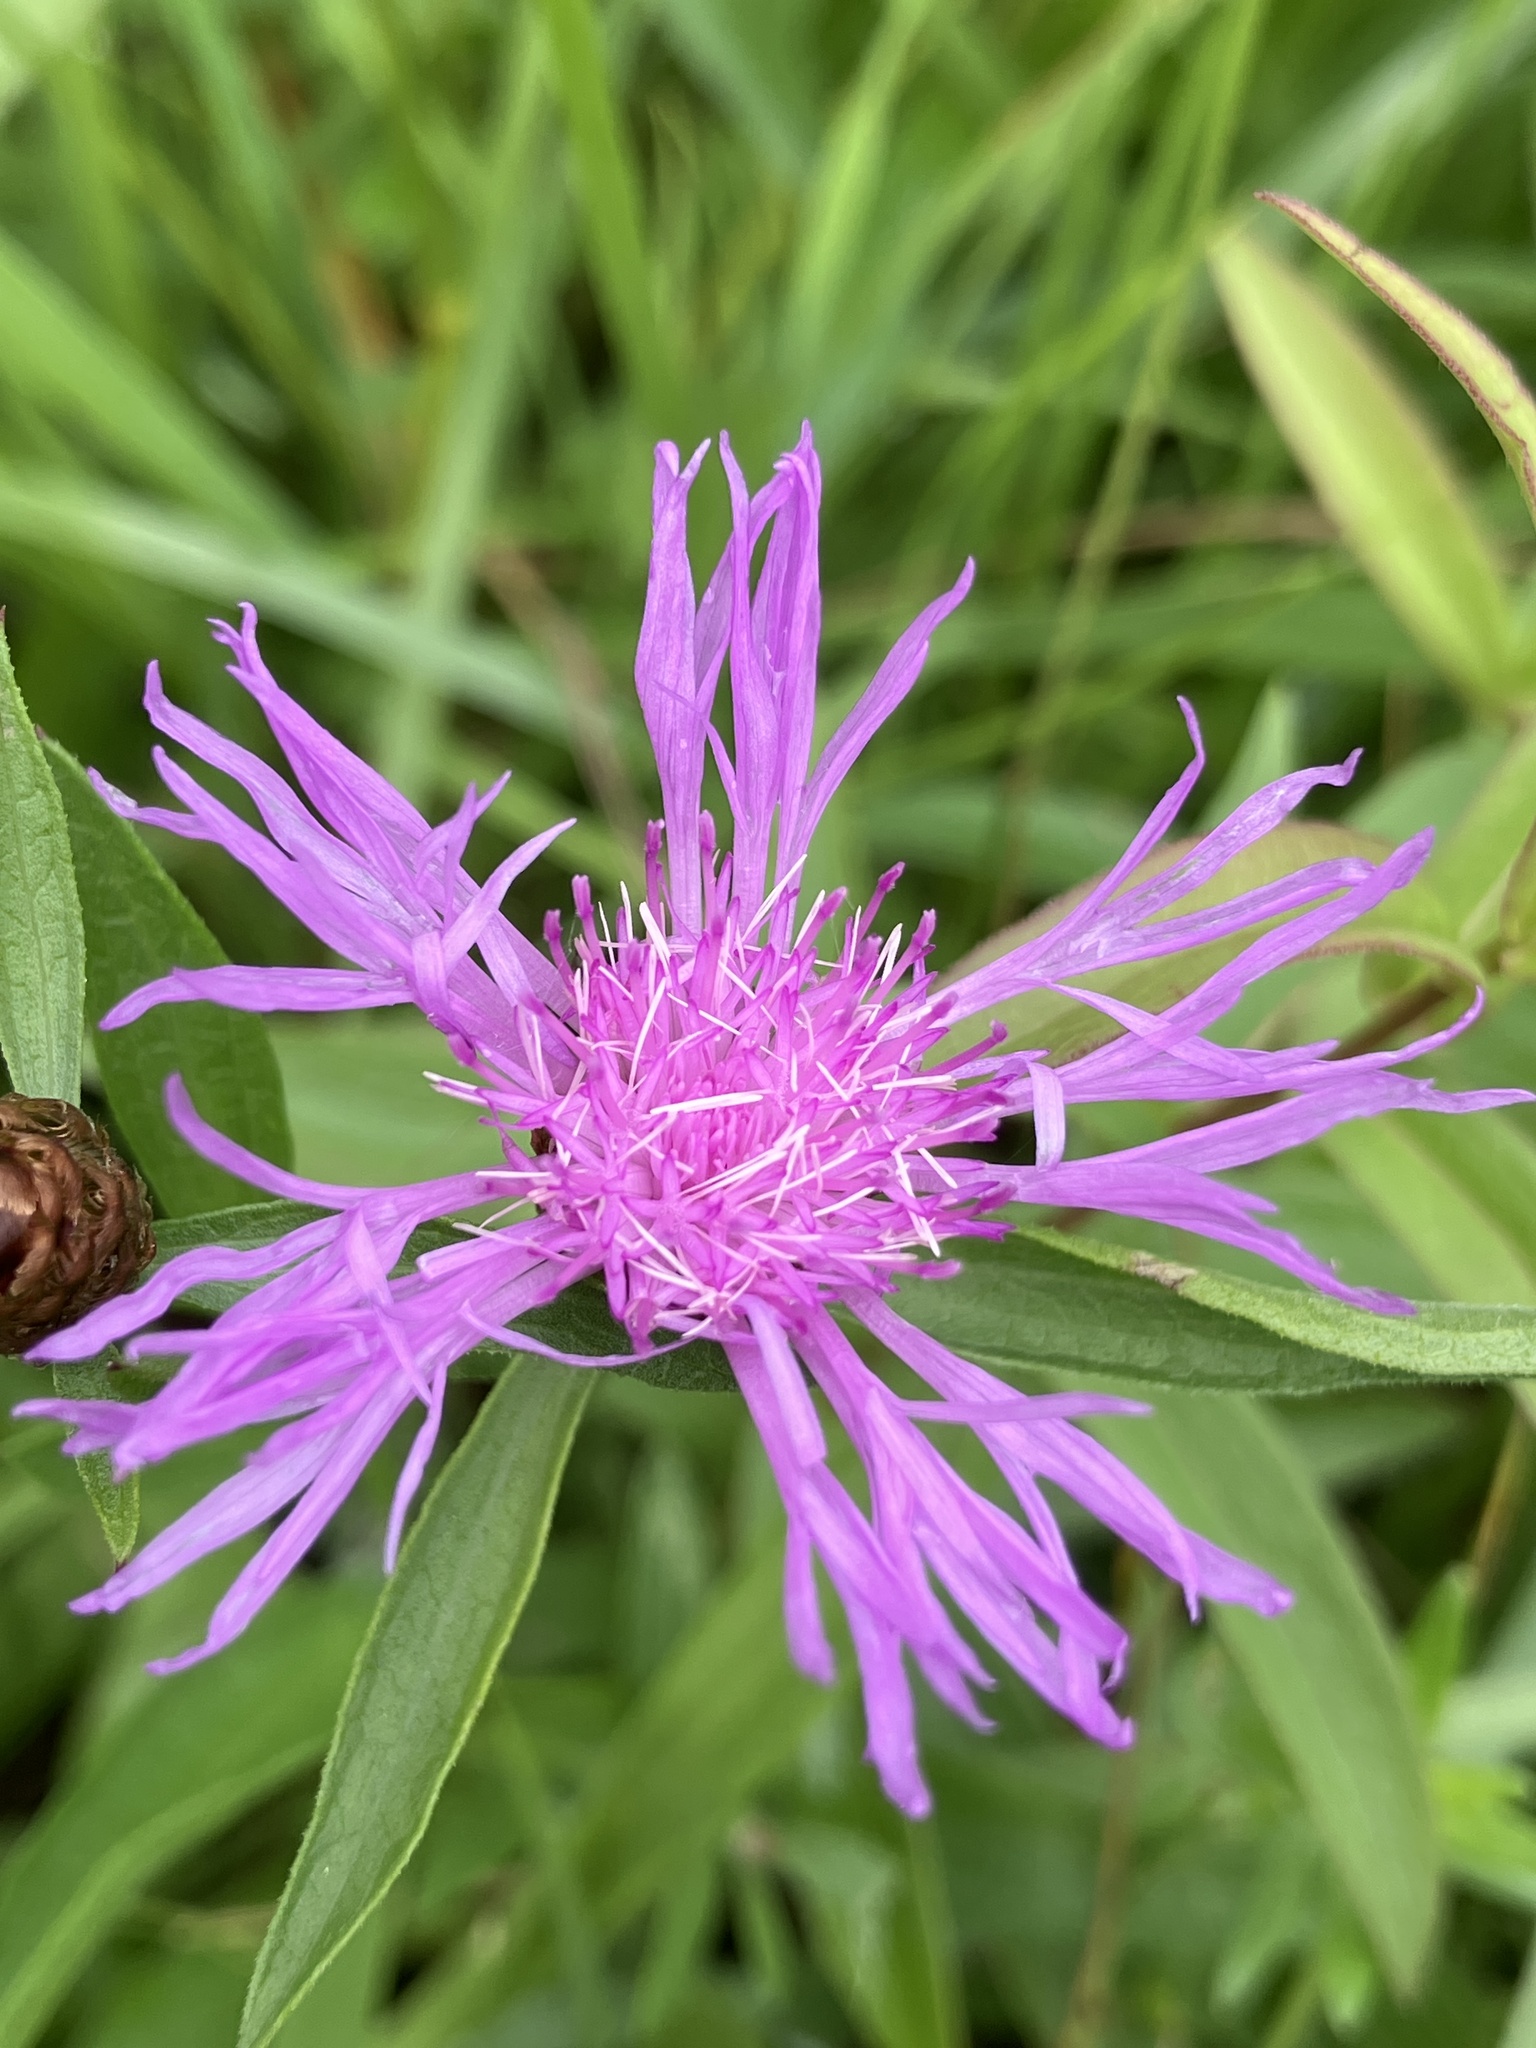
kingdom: Plantae
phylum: Tracheophyta
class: Magnoliopsida
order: Asterales
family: Asteraceae
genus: Centaurea
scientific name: Centaurea jacea
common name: Brown knapweed
